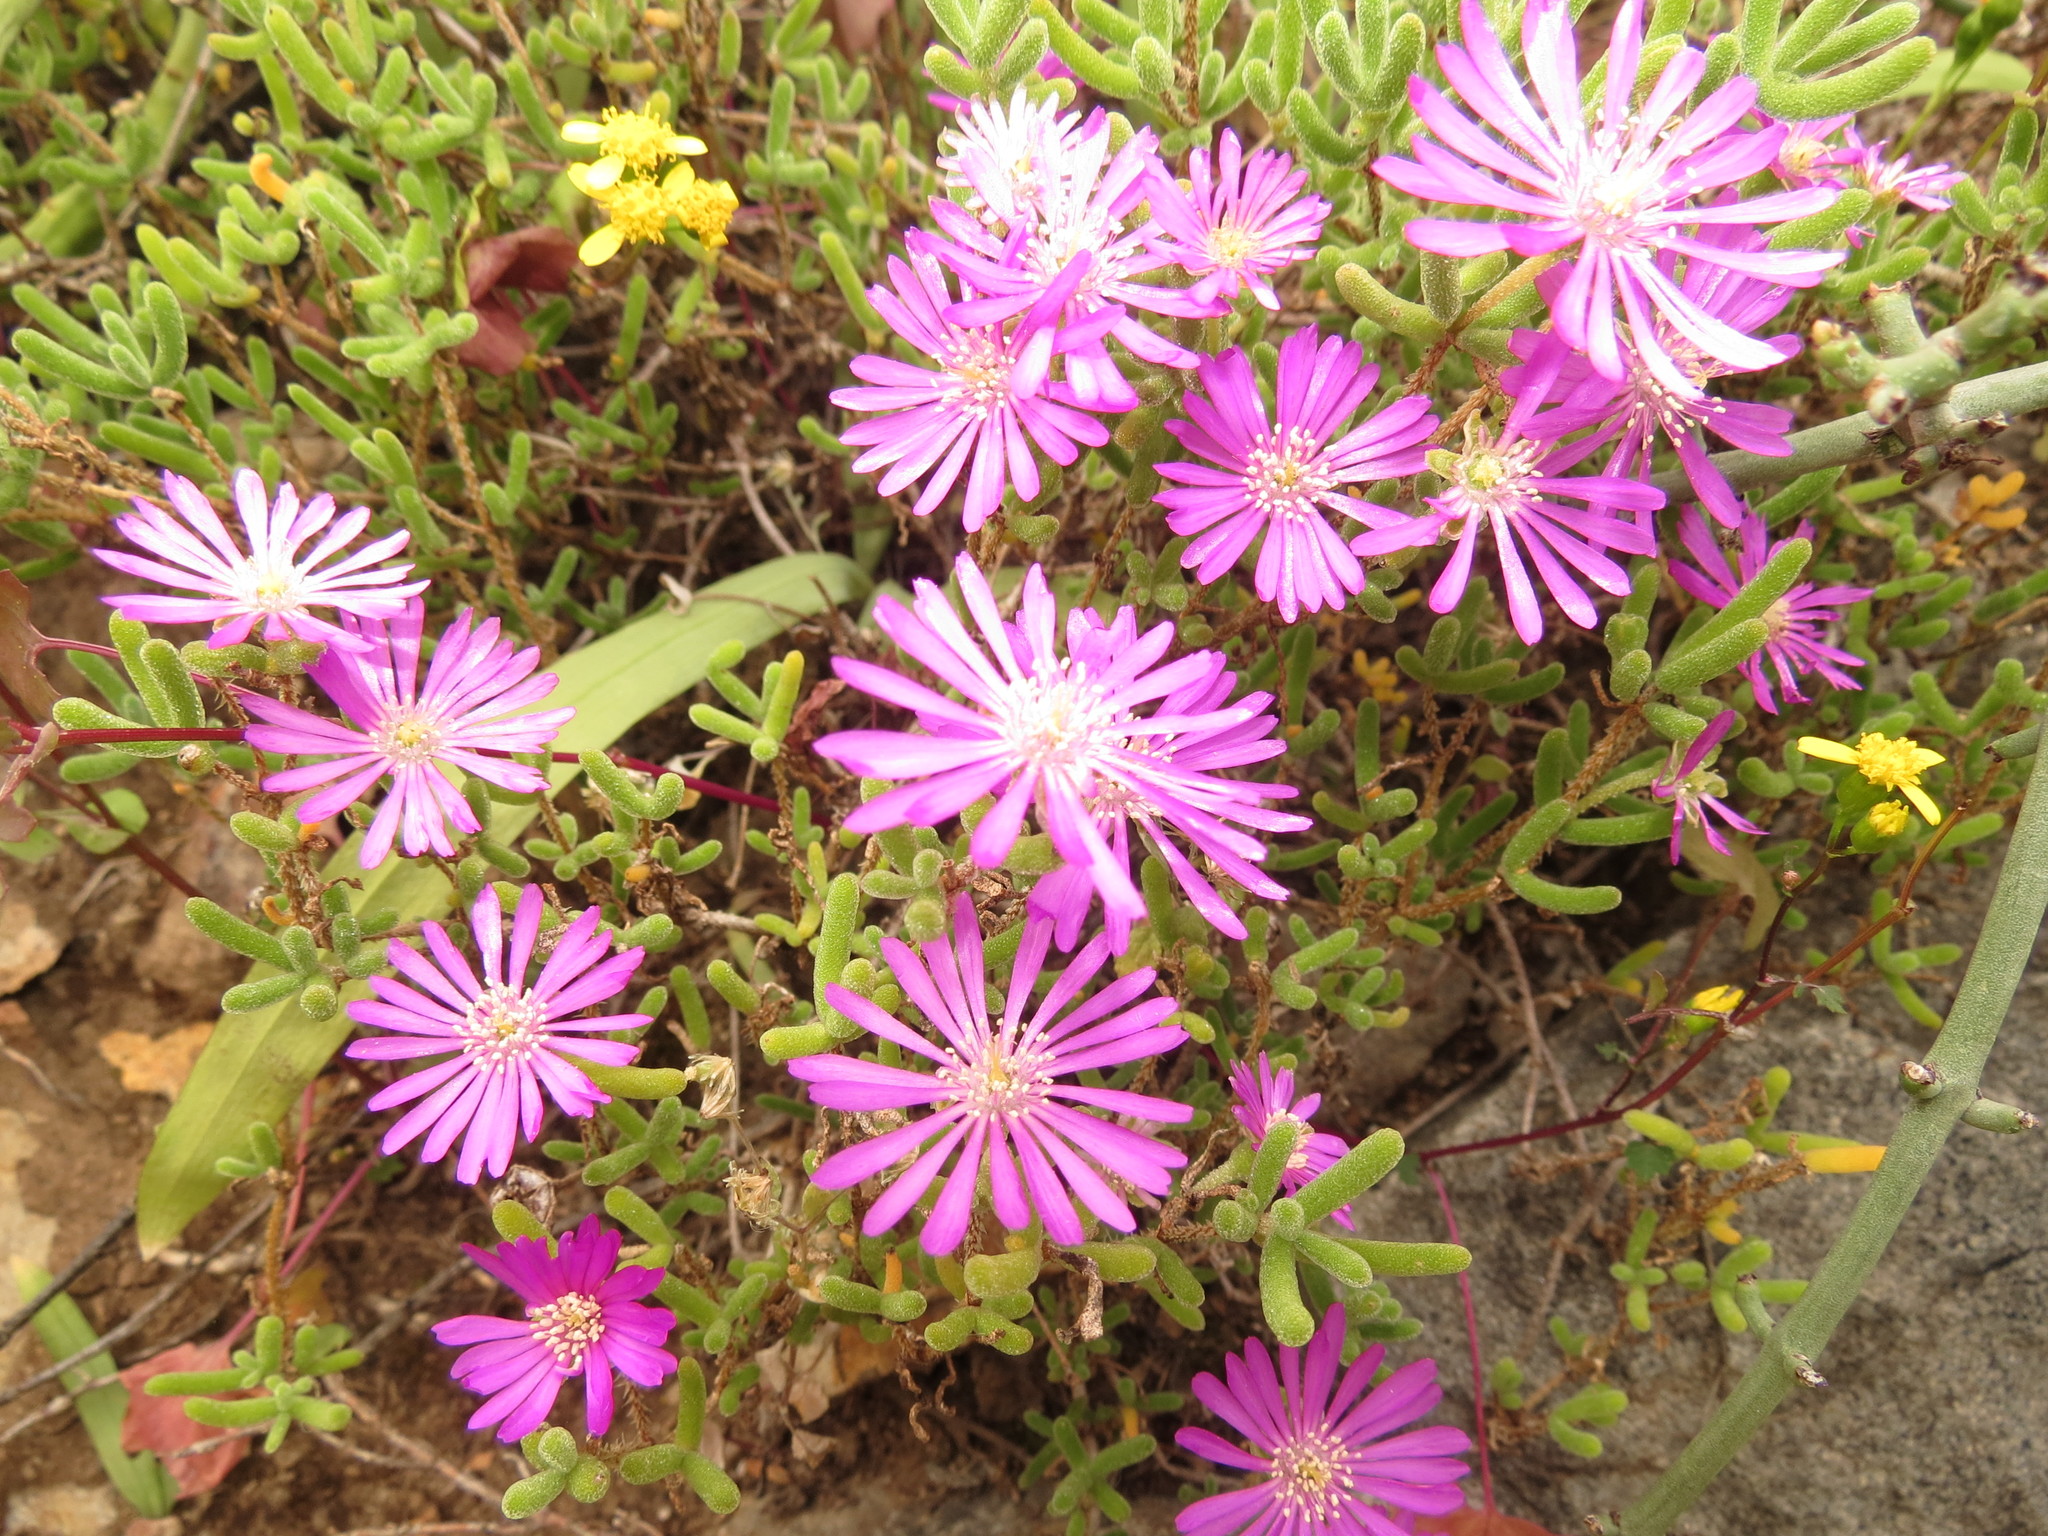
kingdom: Plantae
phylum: Tracheophyta
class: Magnoliopsida
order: Caryophyllales
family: Aizoaceae
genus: Drosanthemum
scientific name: Drosanthemum hispidum
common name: Hairy dewflower
